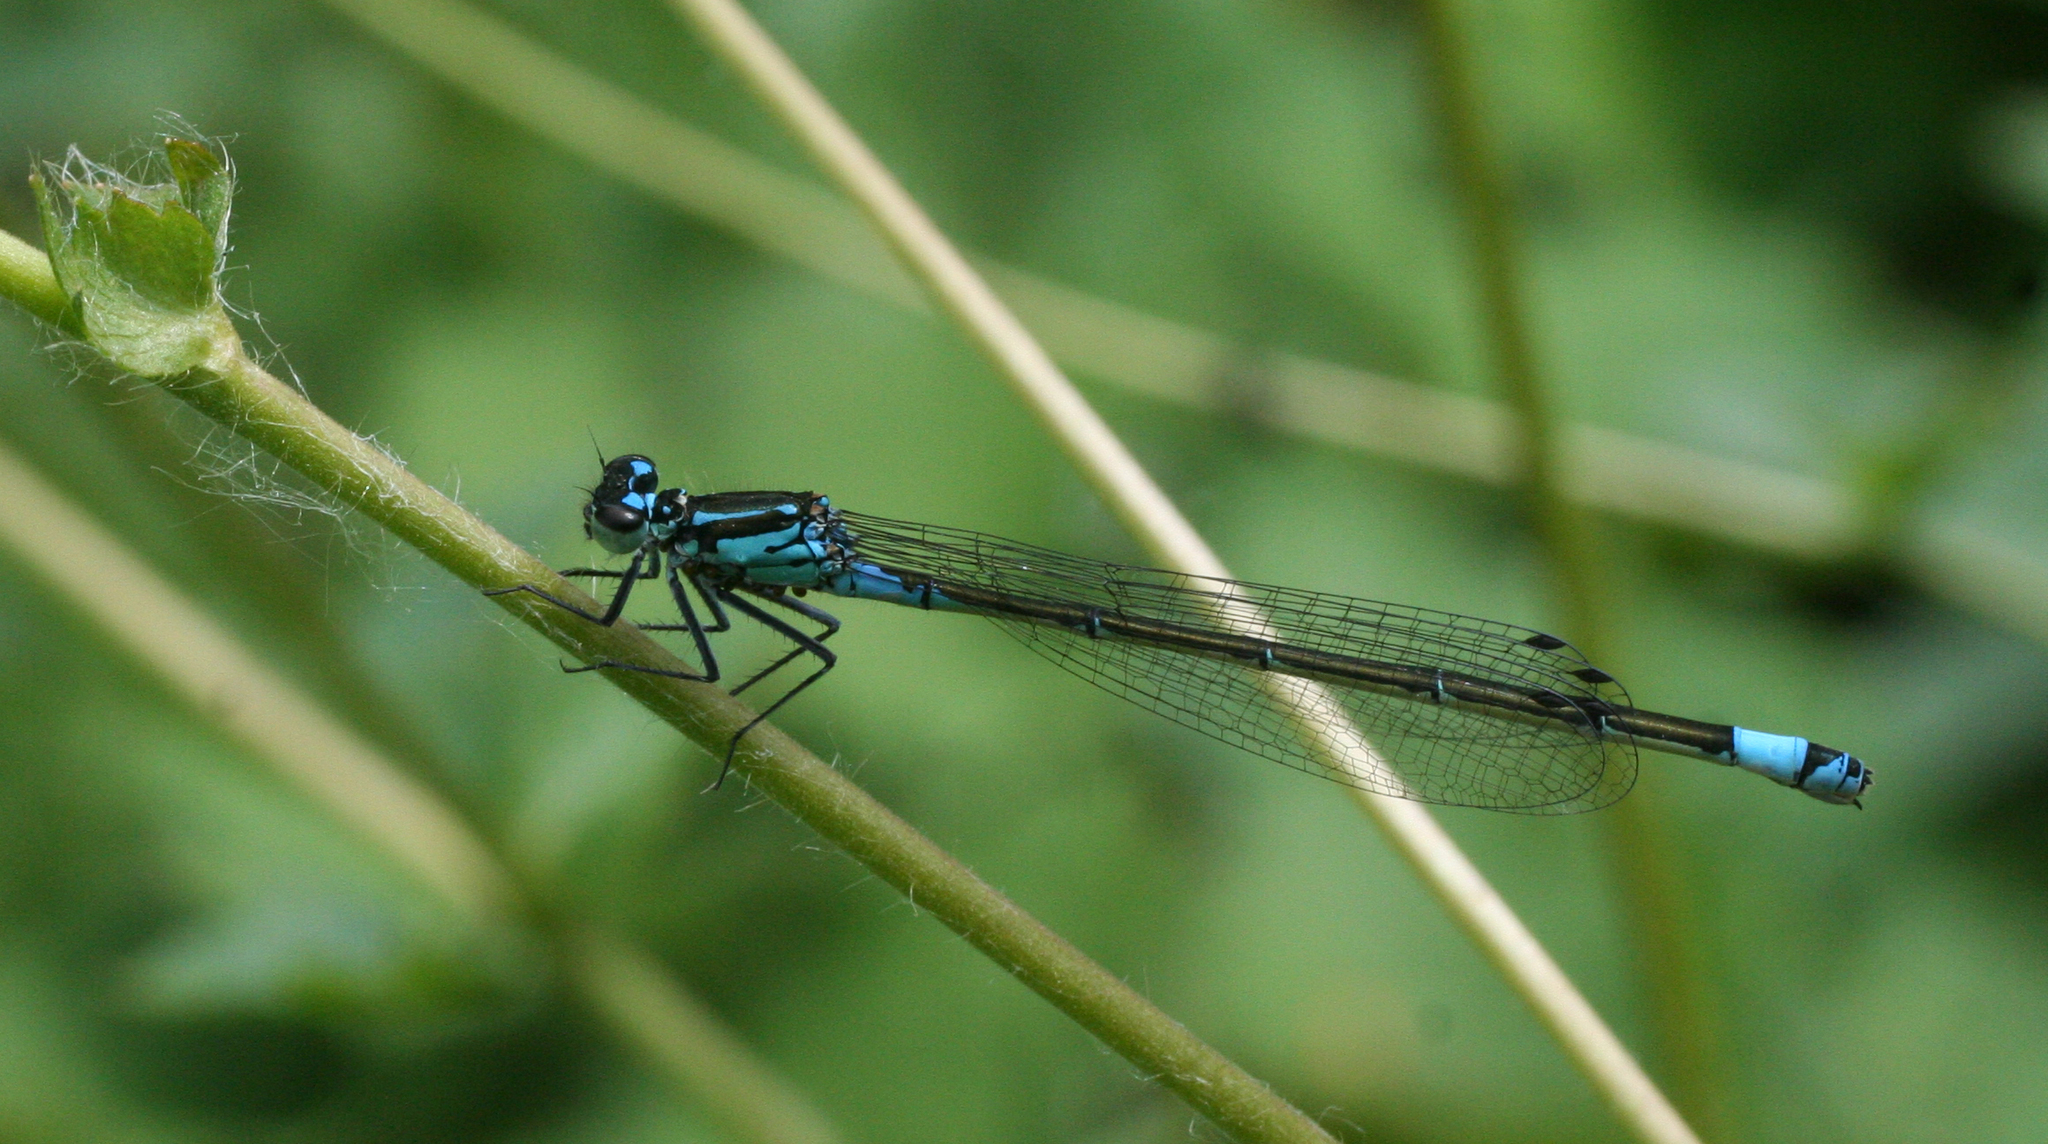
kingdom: Animalia
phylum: Arthropoda
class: Insecta
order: Odonata
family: Coenagrionidae
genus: Coenagrion
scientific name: Coenagrion pulchellum
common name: Variable bluet
